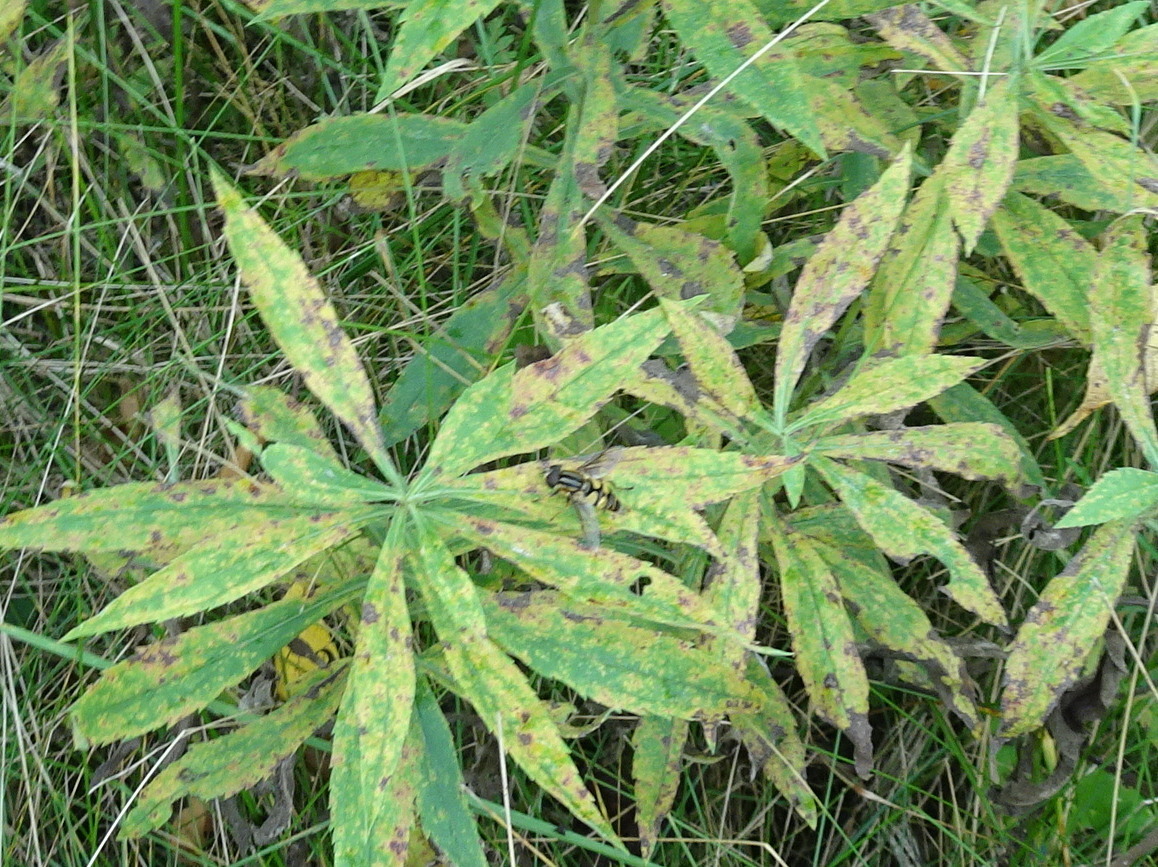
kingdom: Animalia
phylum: Arthropoda
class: Insecta
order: Diptera
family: Syrphidae
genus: Helophilus
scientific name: Helophilus fasciatus
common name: Narrow-headed marsh fly
